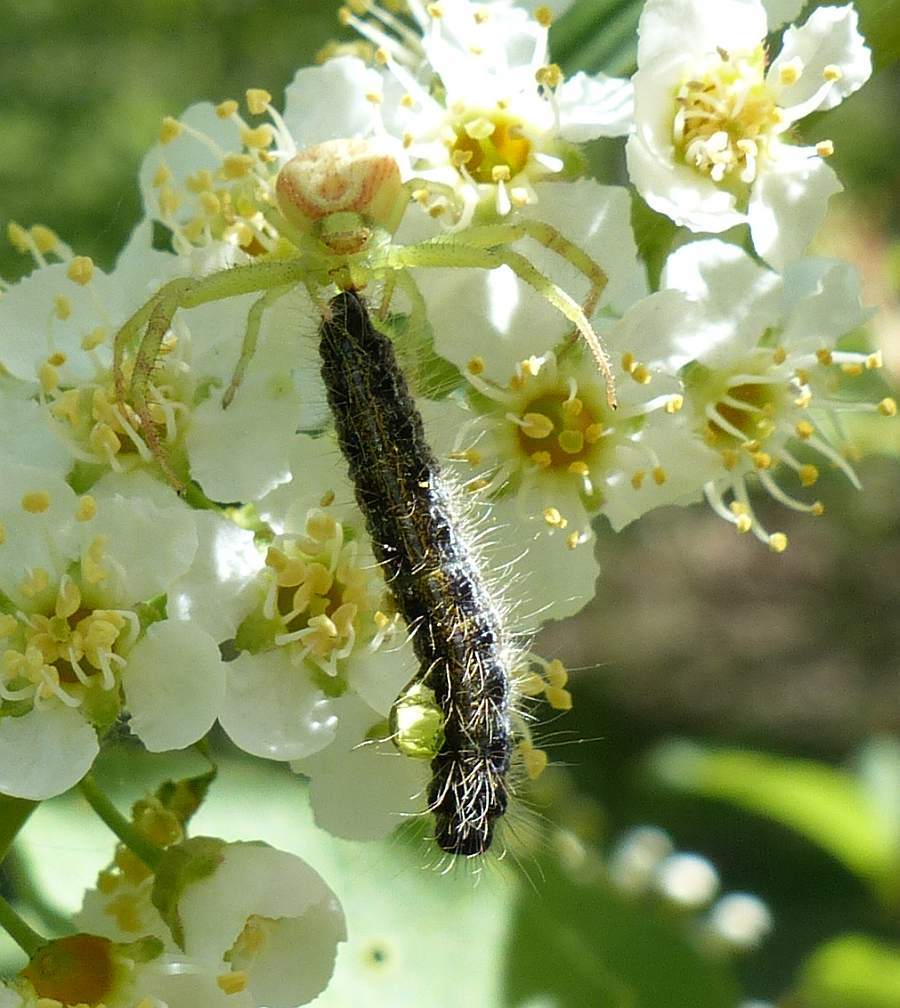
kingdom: Animalia
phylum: Arthropoda
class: Insecta
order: Lepidoptera
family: Lasiocampidae
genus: Malacosoma
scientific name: Malacosoma americana
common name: Eastern tent caterpillar moth
